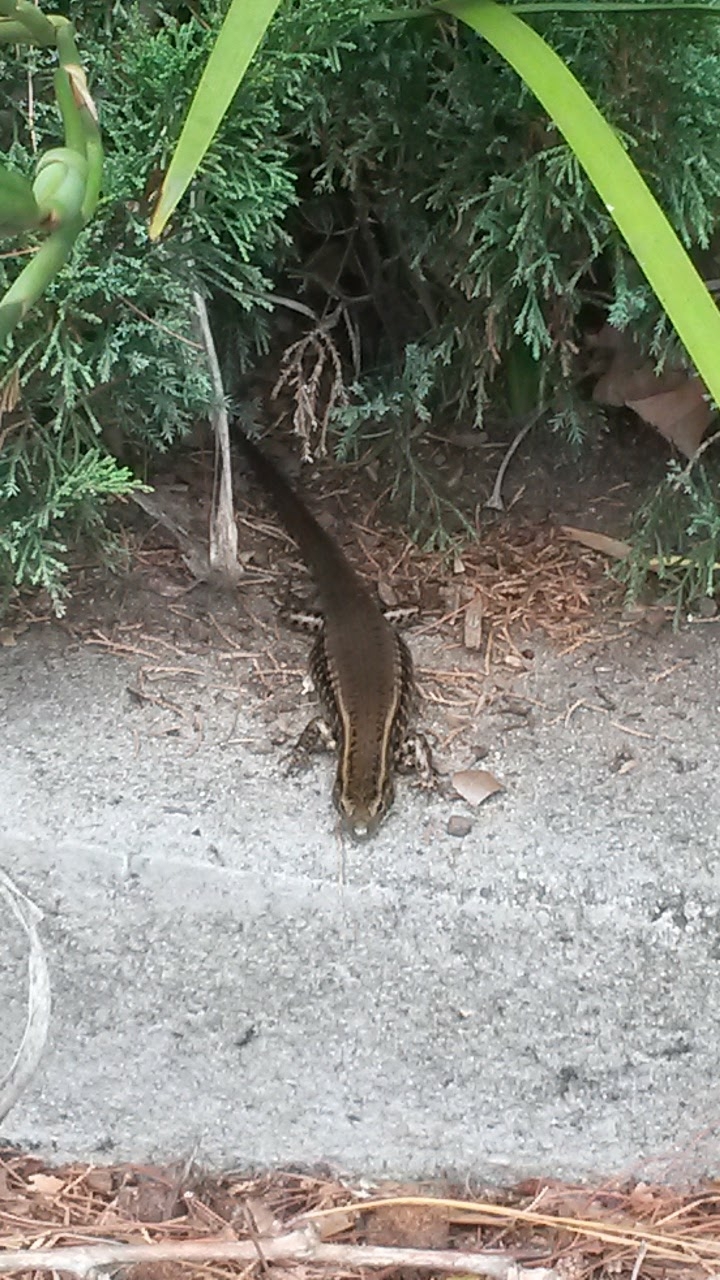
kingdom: Animalia
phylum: Chordata
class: Squamata
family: Scincidae
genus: Eulamprus
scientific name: Eulamprus quoyii
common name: Eastern water skink
